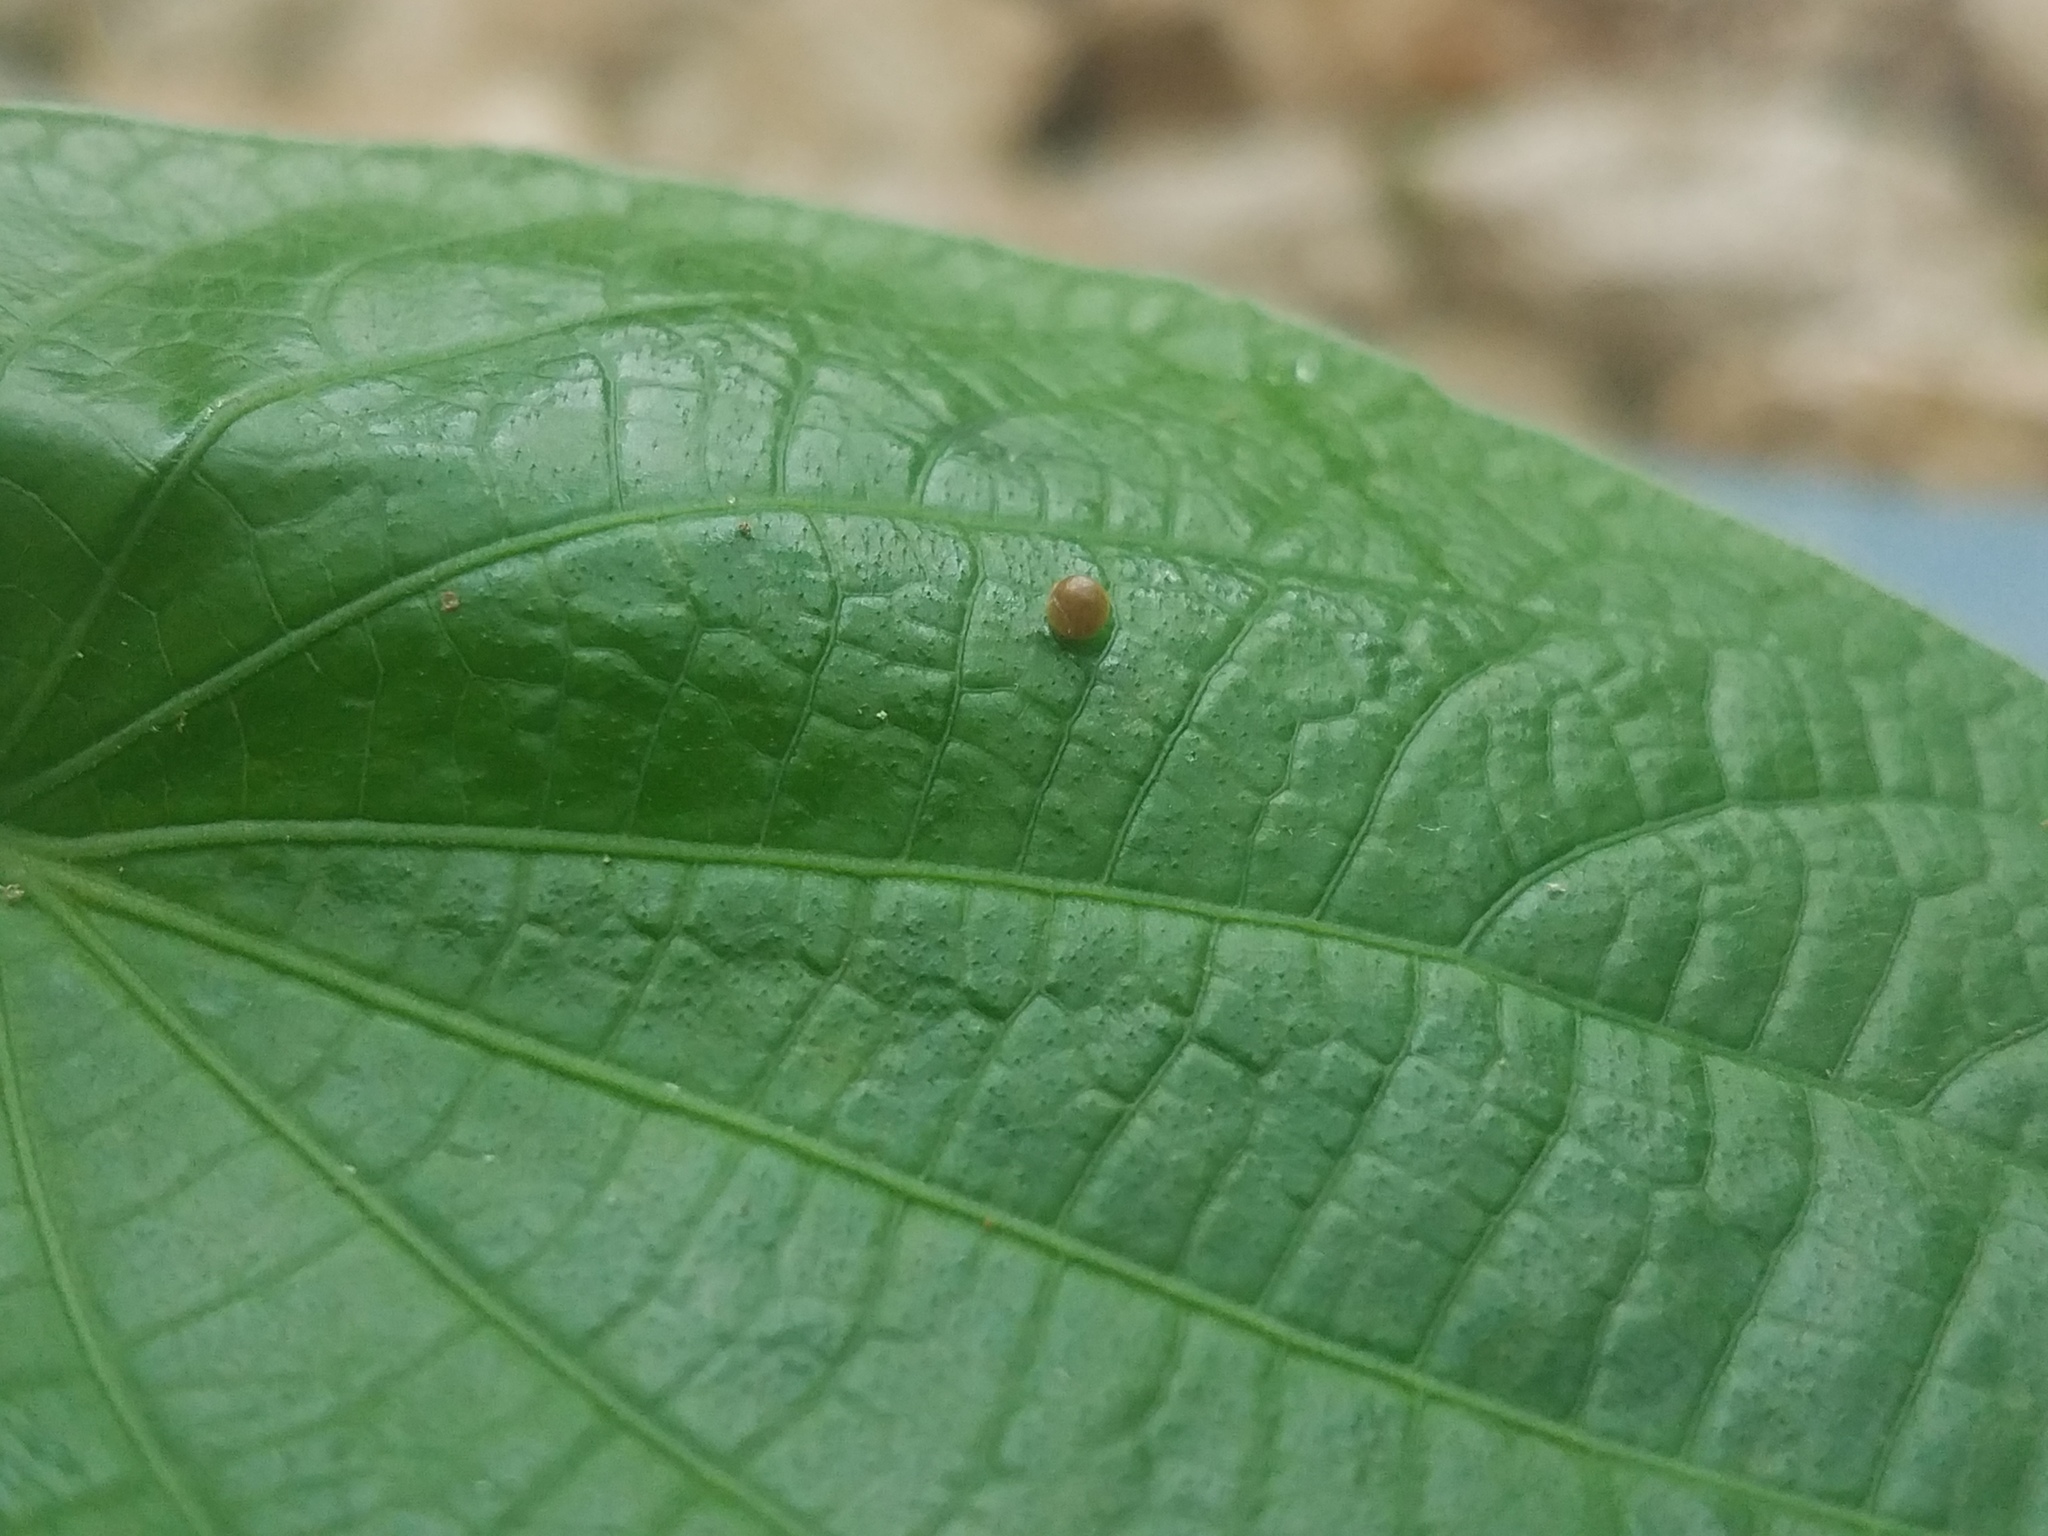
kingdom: Animalia
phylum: Arthropoda
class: Insecta
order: Lepidoptera
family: Papilionidae
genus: Papilio
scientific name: Papilio thoas
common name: King swallowtail
